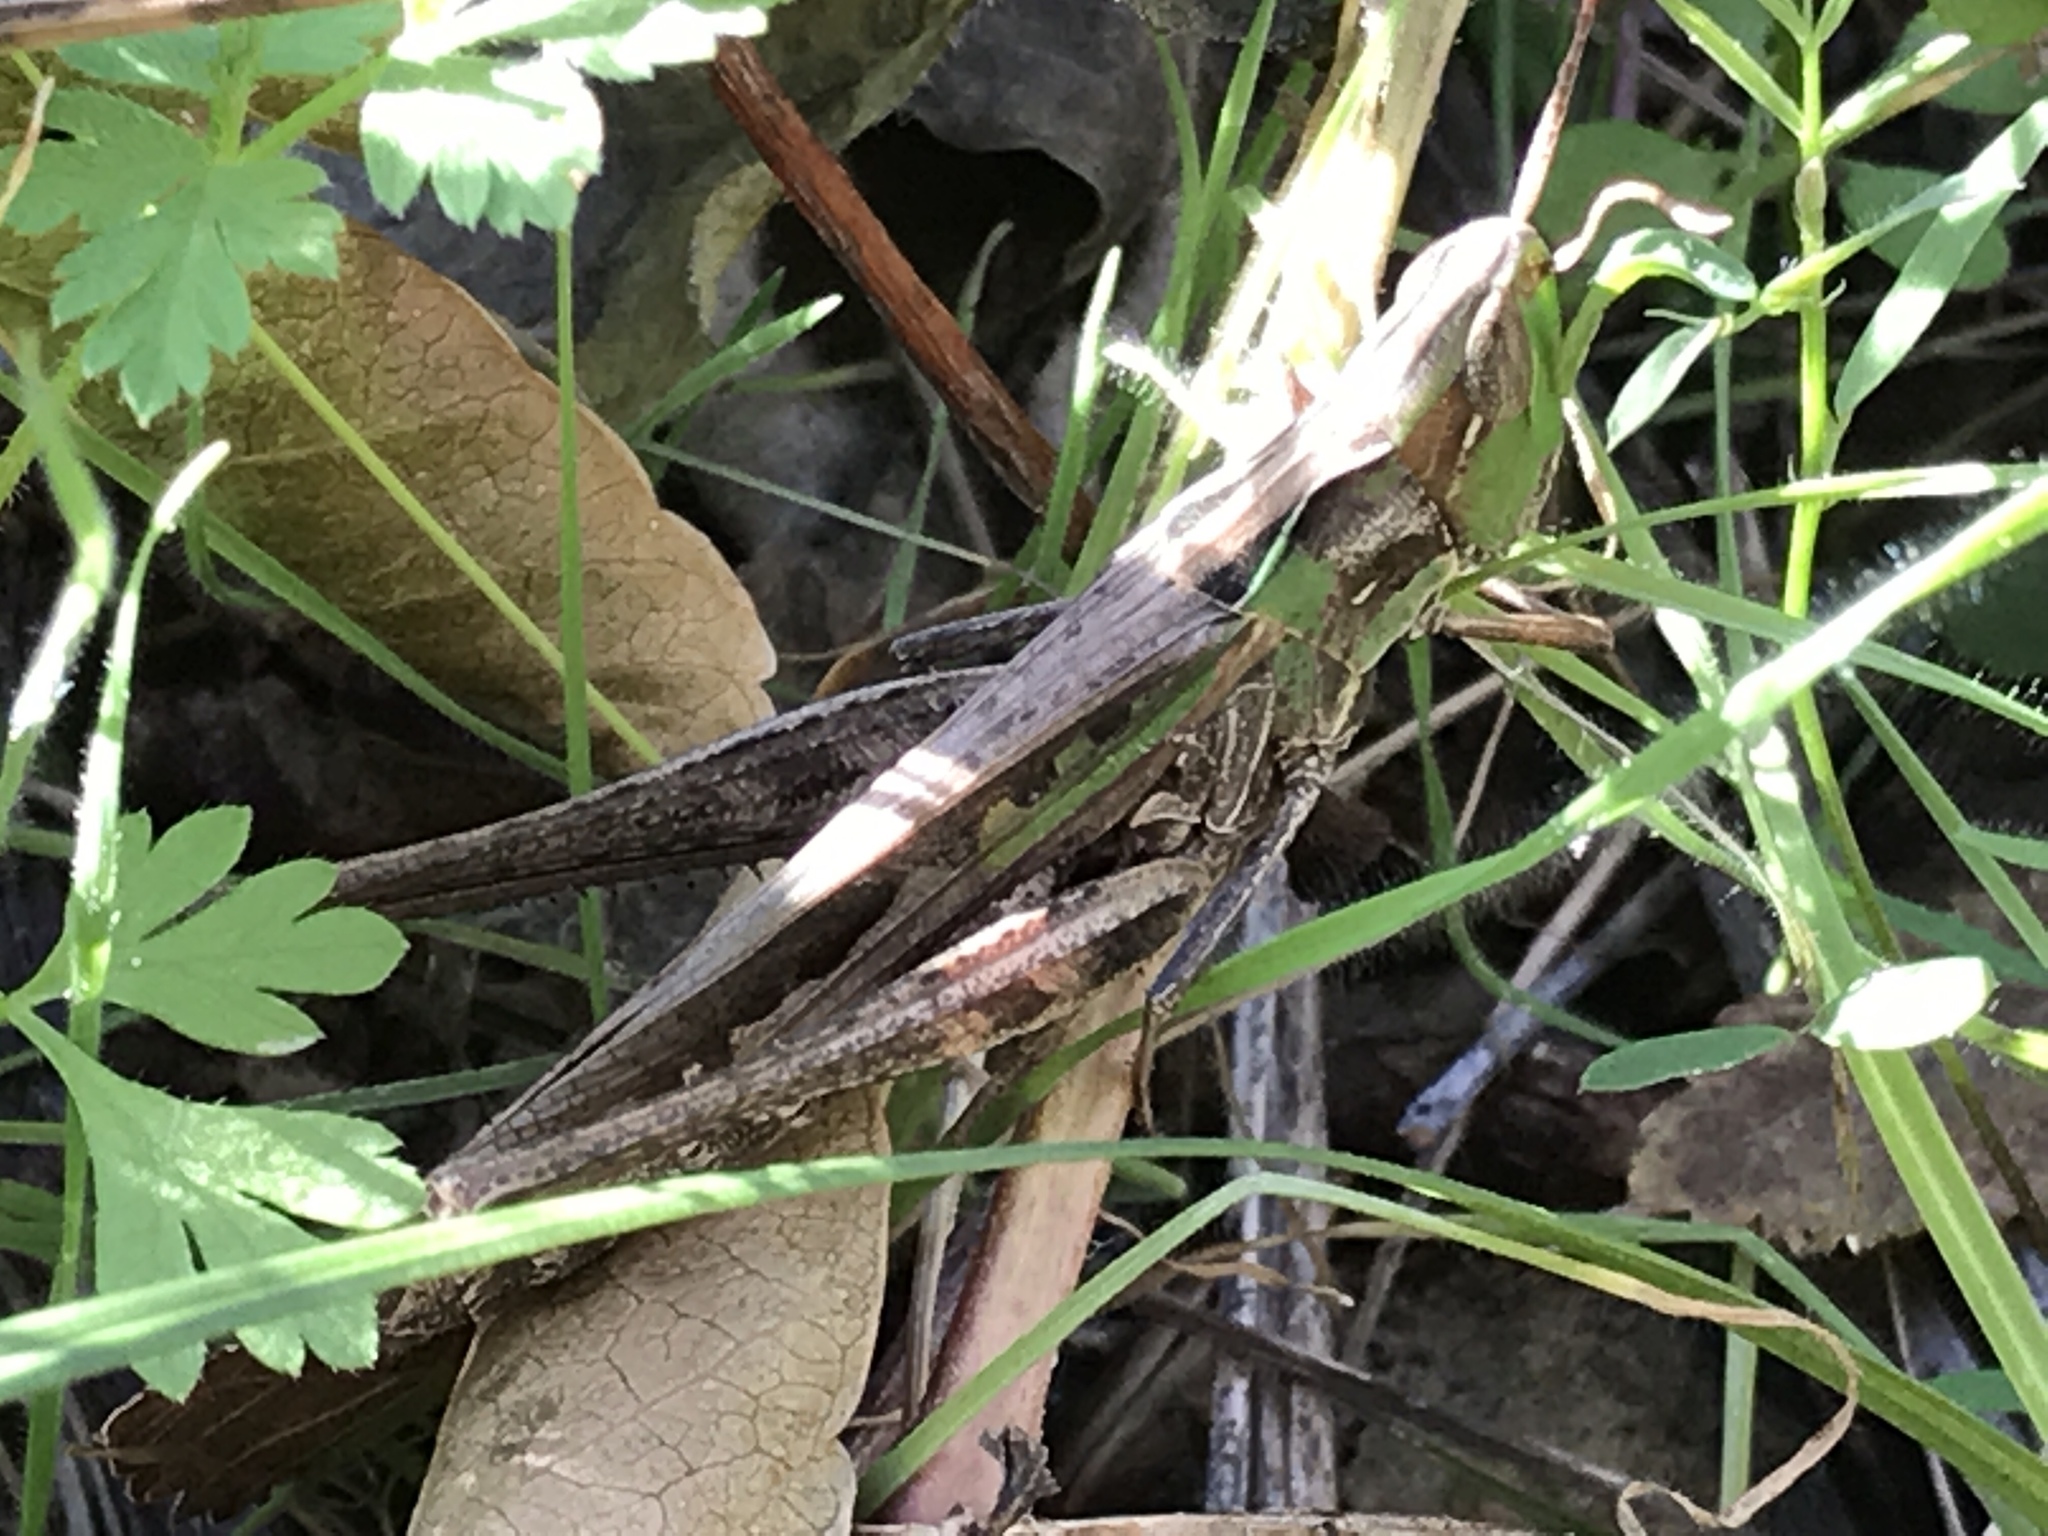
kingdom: Animalia
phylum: Arthropoda
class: Insecta
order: Orthoptera
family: Acrididae
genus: Syrbula
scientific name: Syrbula montezuma
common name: Montezuma's grasshopper
